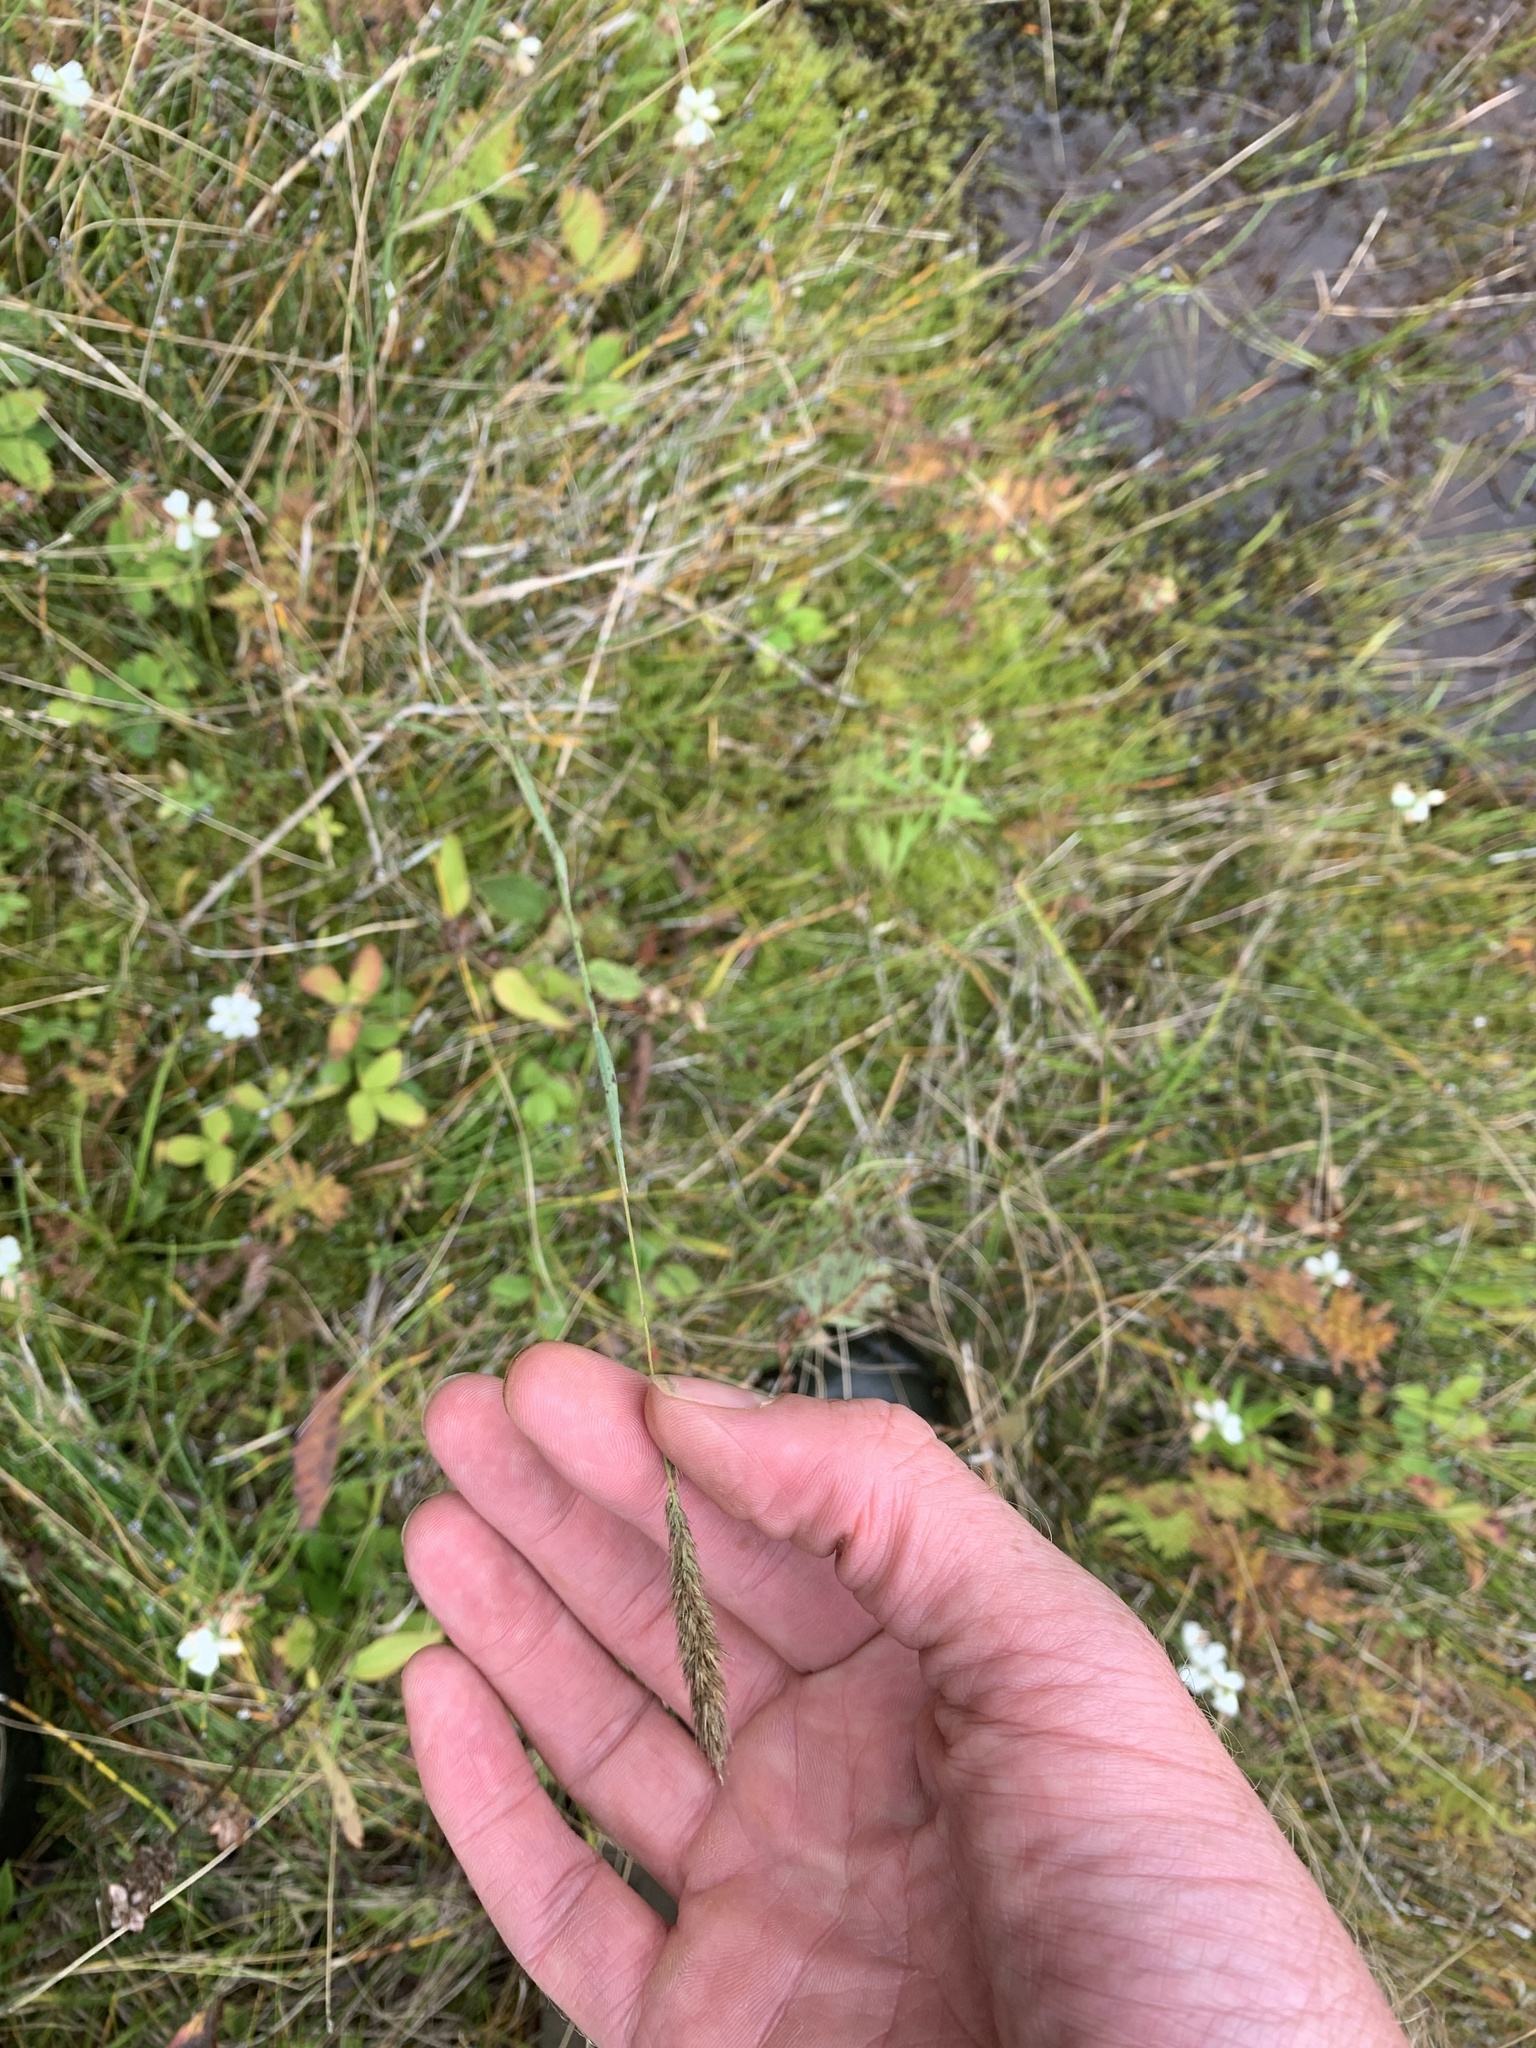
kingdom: Plantae
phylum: Tracheophyta
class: Liliopsida
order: Poales
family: Poaceae
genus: Muhlenbergia
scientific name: Muhlenbergia glomerata
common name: Bog muhly
